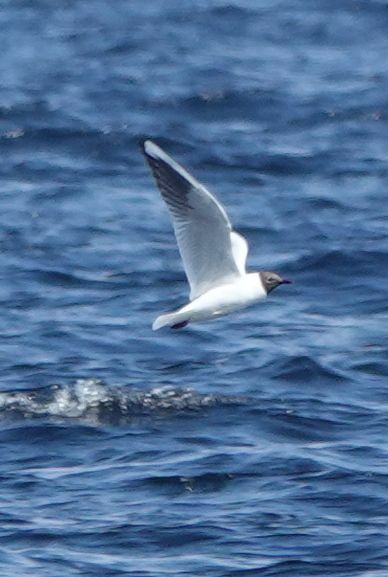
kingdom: Animalia
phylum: Chordata
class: Aves
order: Charadriiformes
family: Laridae
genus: Chroicocephalus
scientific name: Chroicocephalus ridibundus
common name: Black-headed gull
